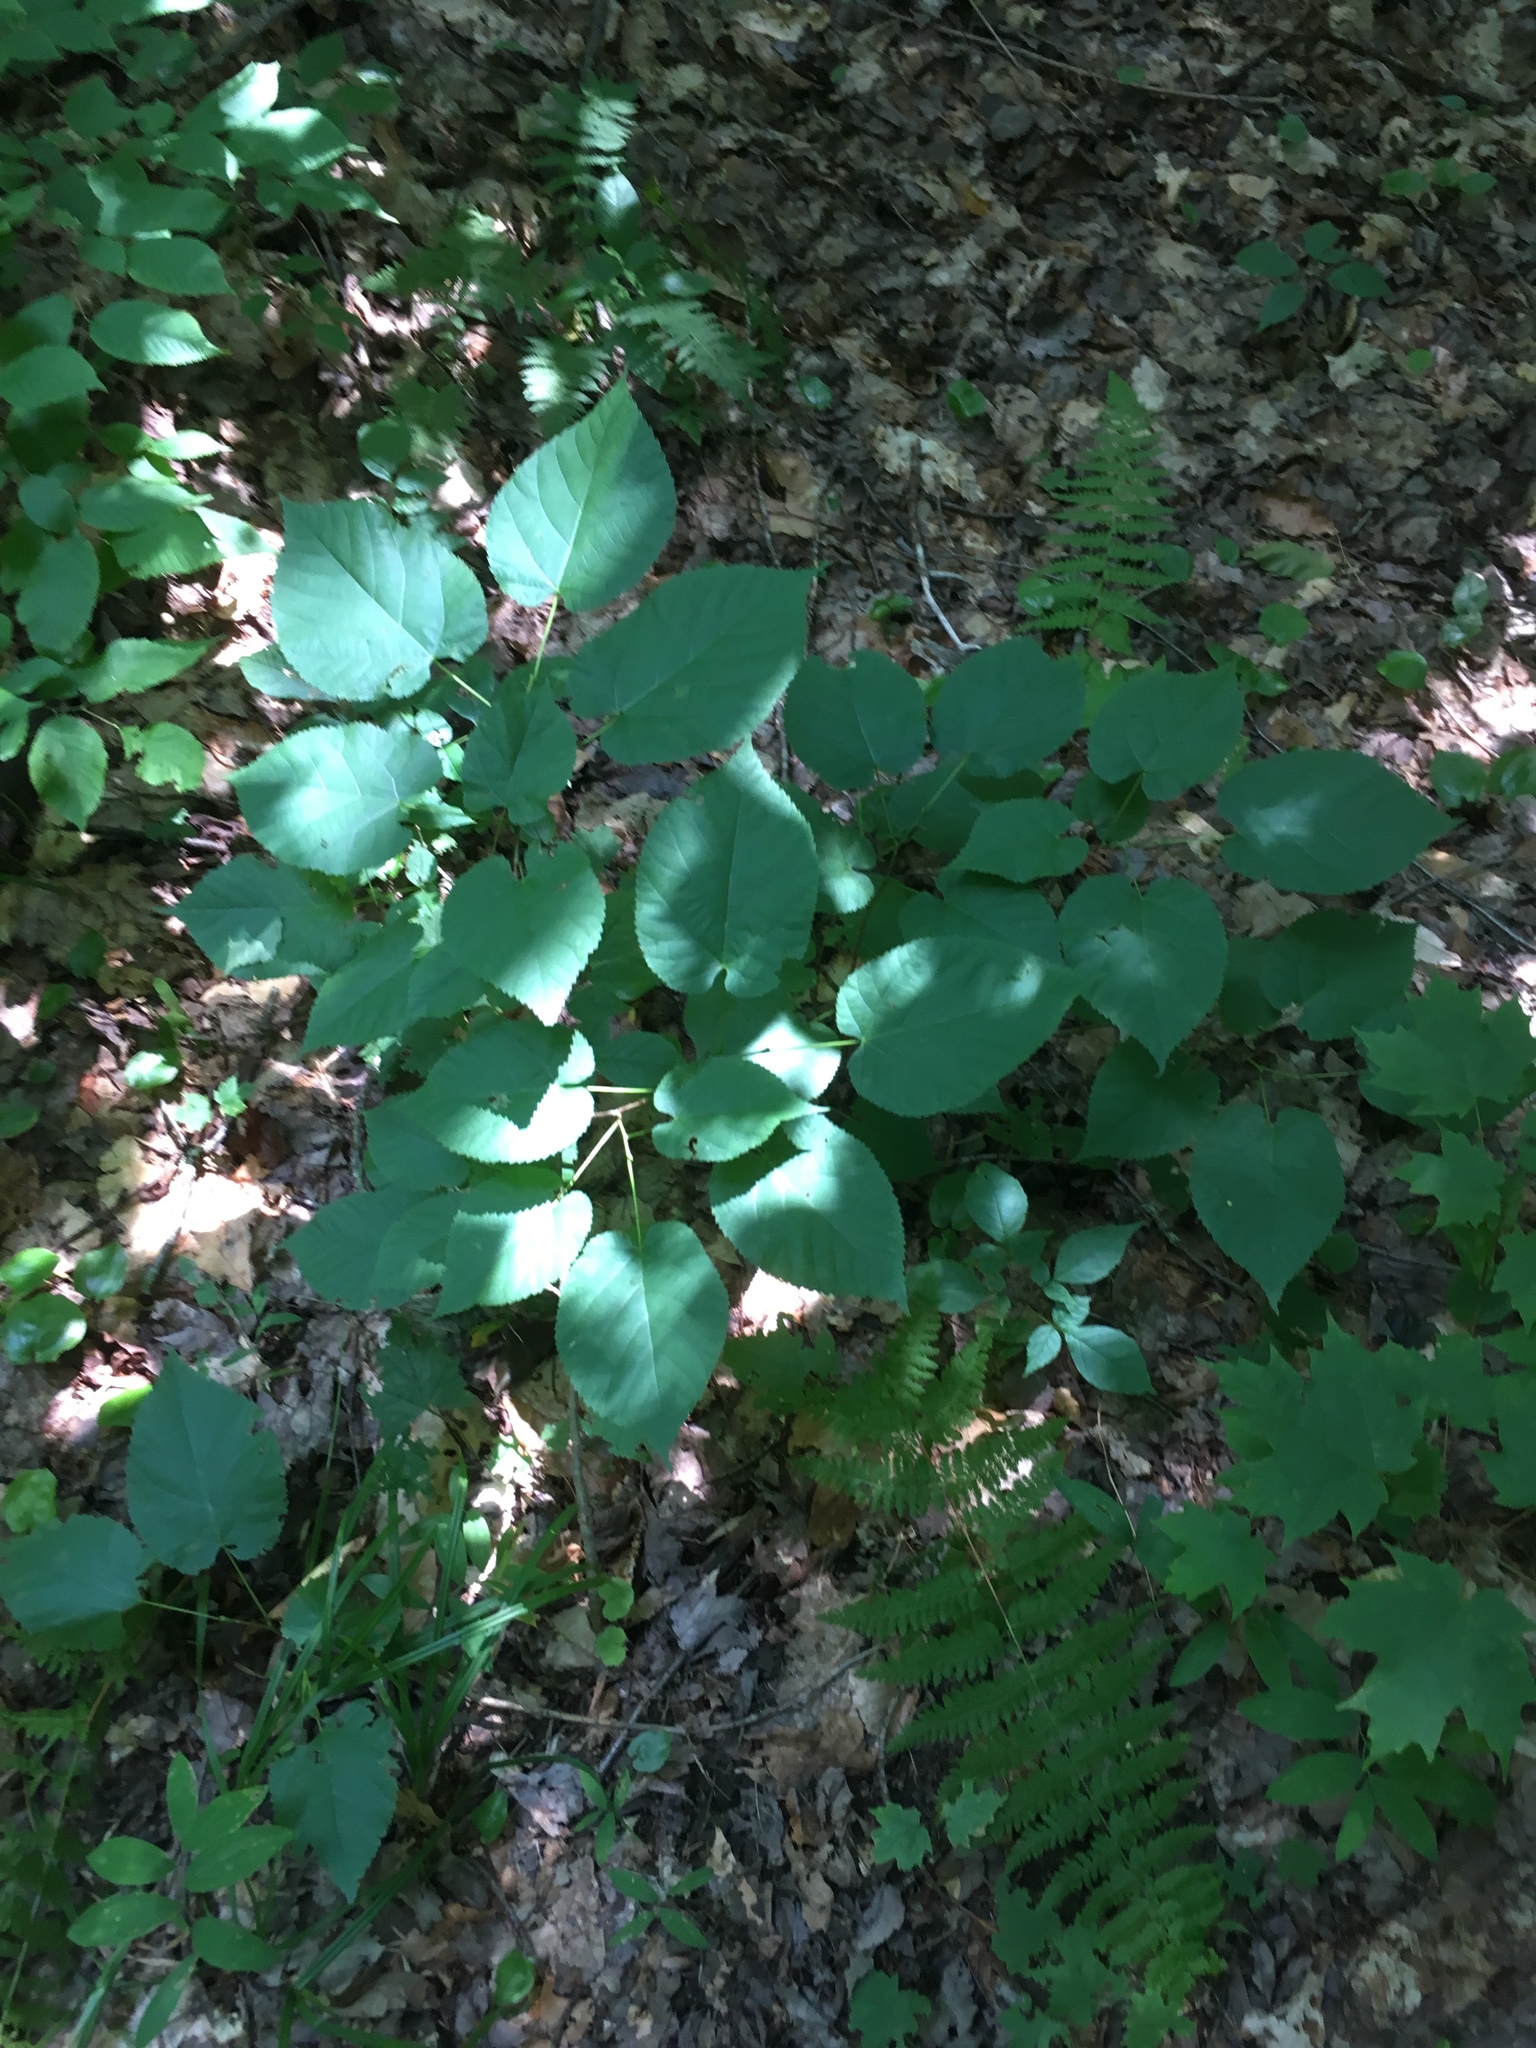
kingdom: Plantae
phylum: Tracheophyta
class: Magnoliopsida
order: Malvales
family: Malvaceae
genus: Tilia
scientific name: Tilia americana
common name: Basswood
